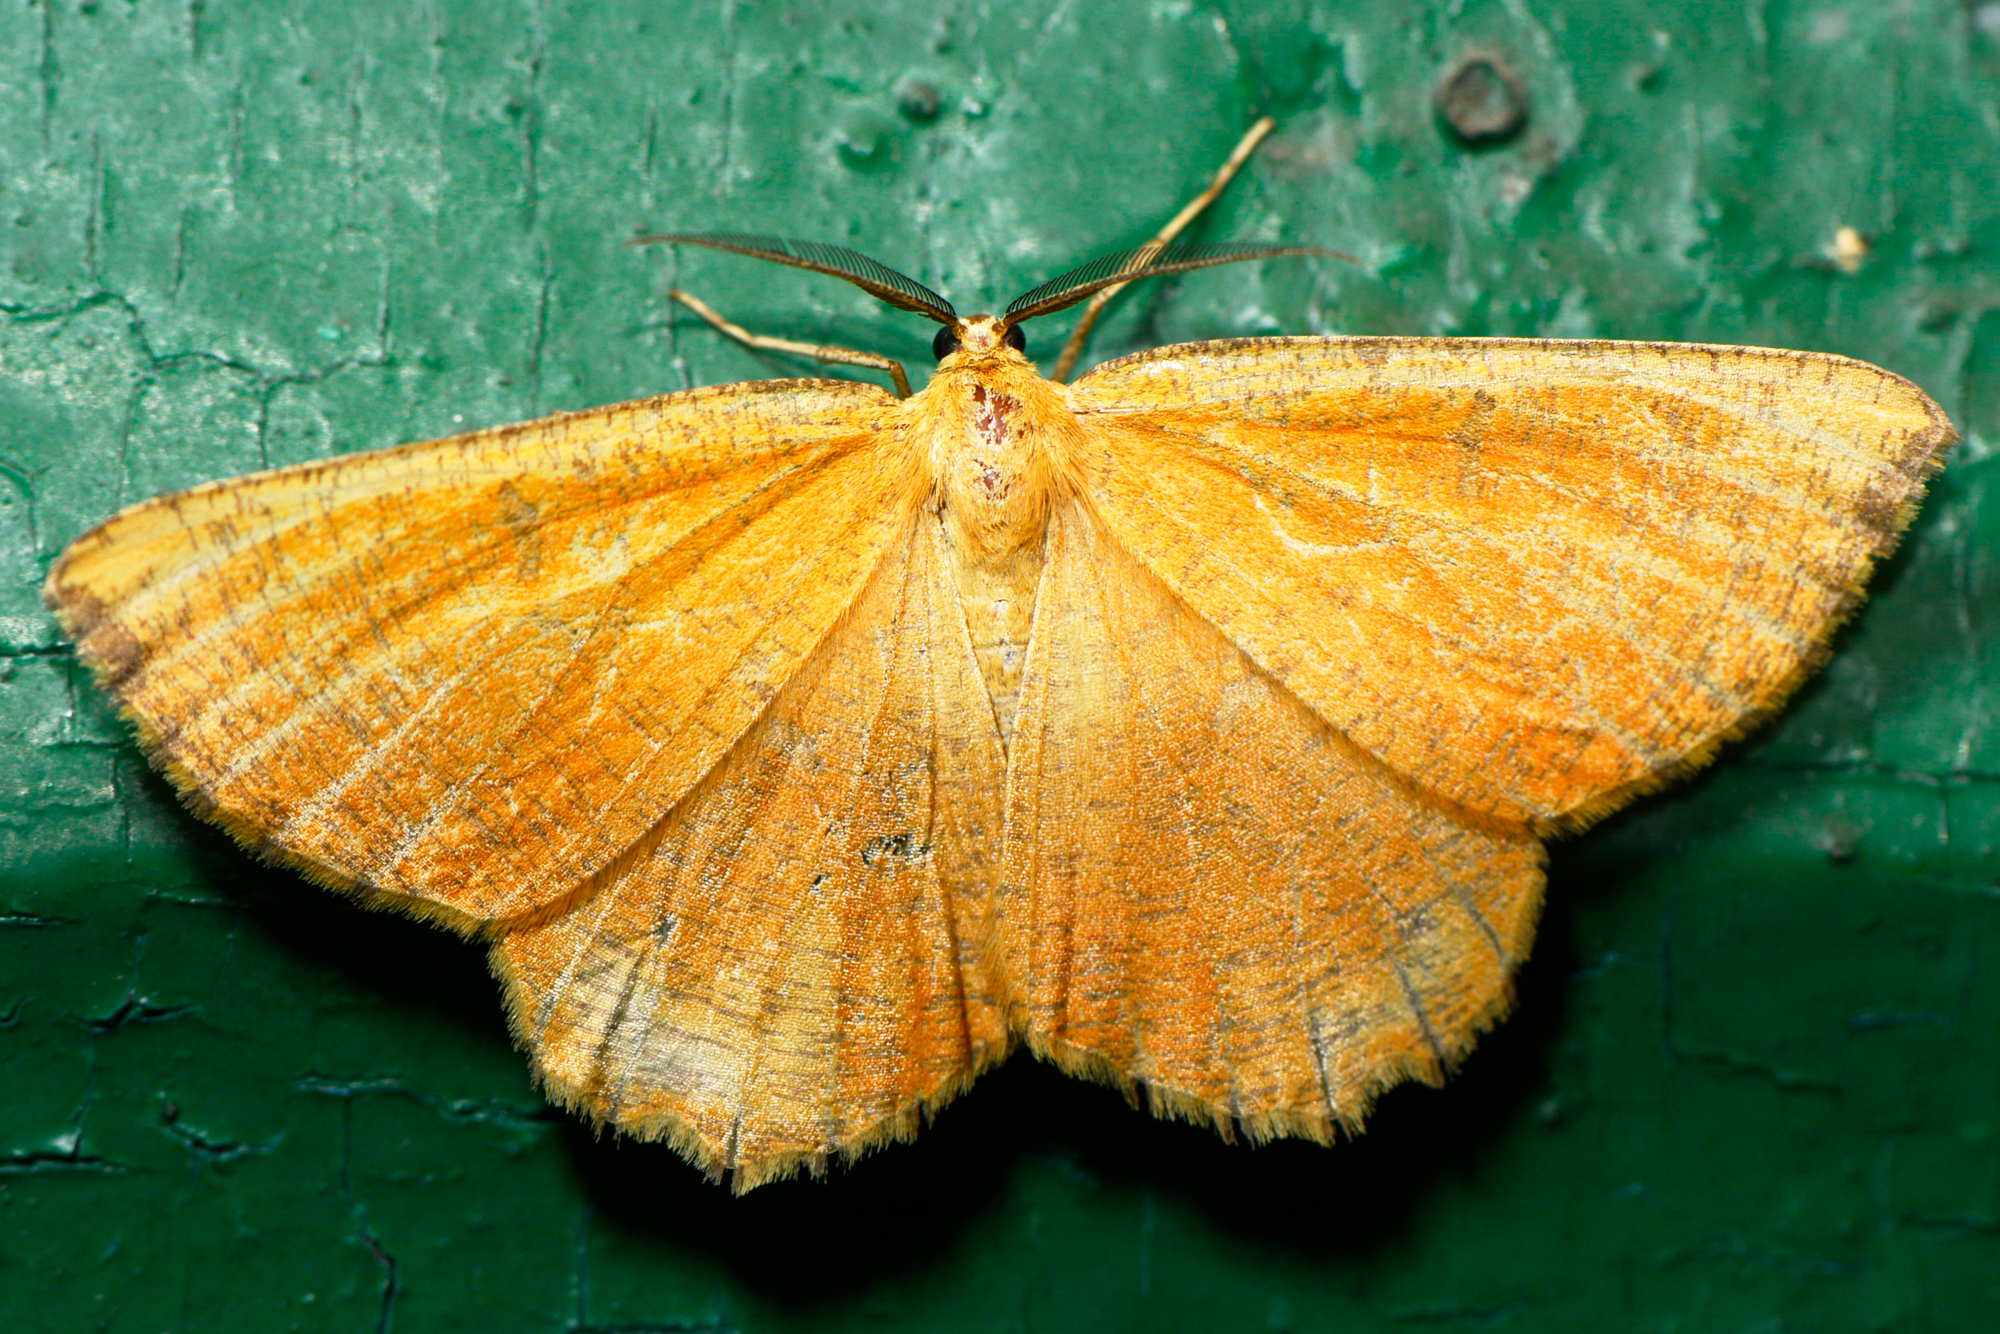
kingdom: Animalia
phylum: Arthropoda
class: Insecta
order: Lepidoptera
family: Geometridae
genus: Angerona
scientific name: Angerona prunaria
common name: Orange moth
